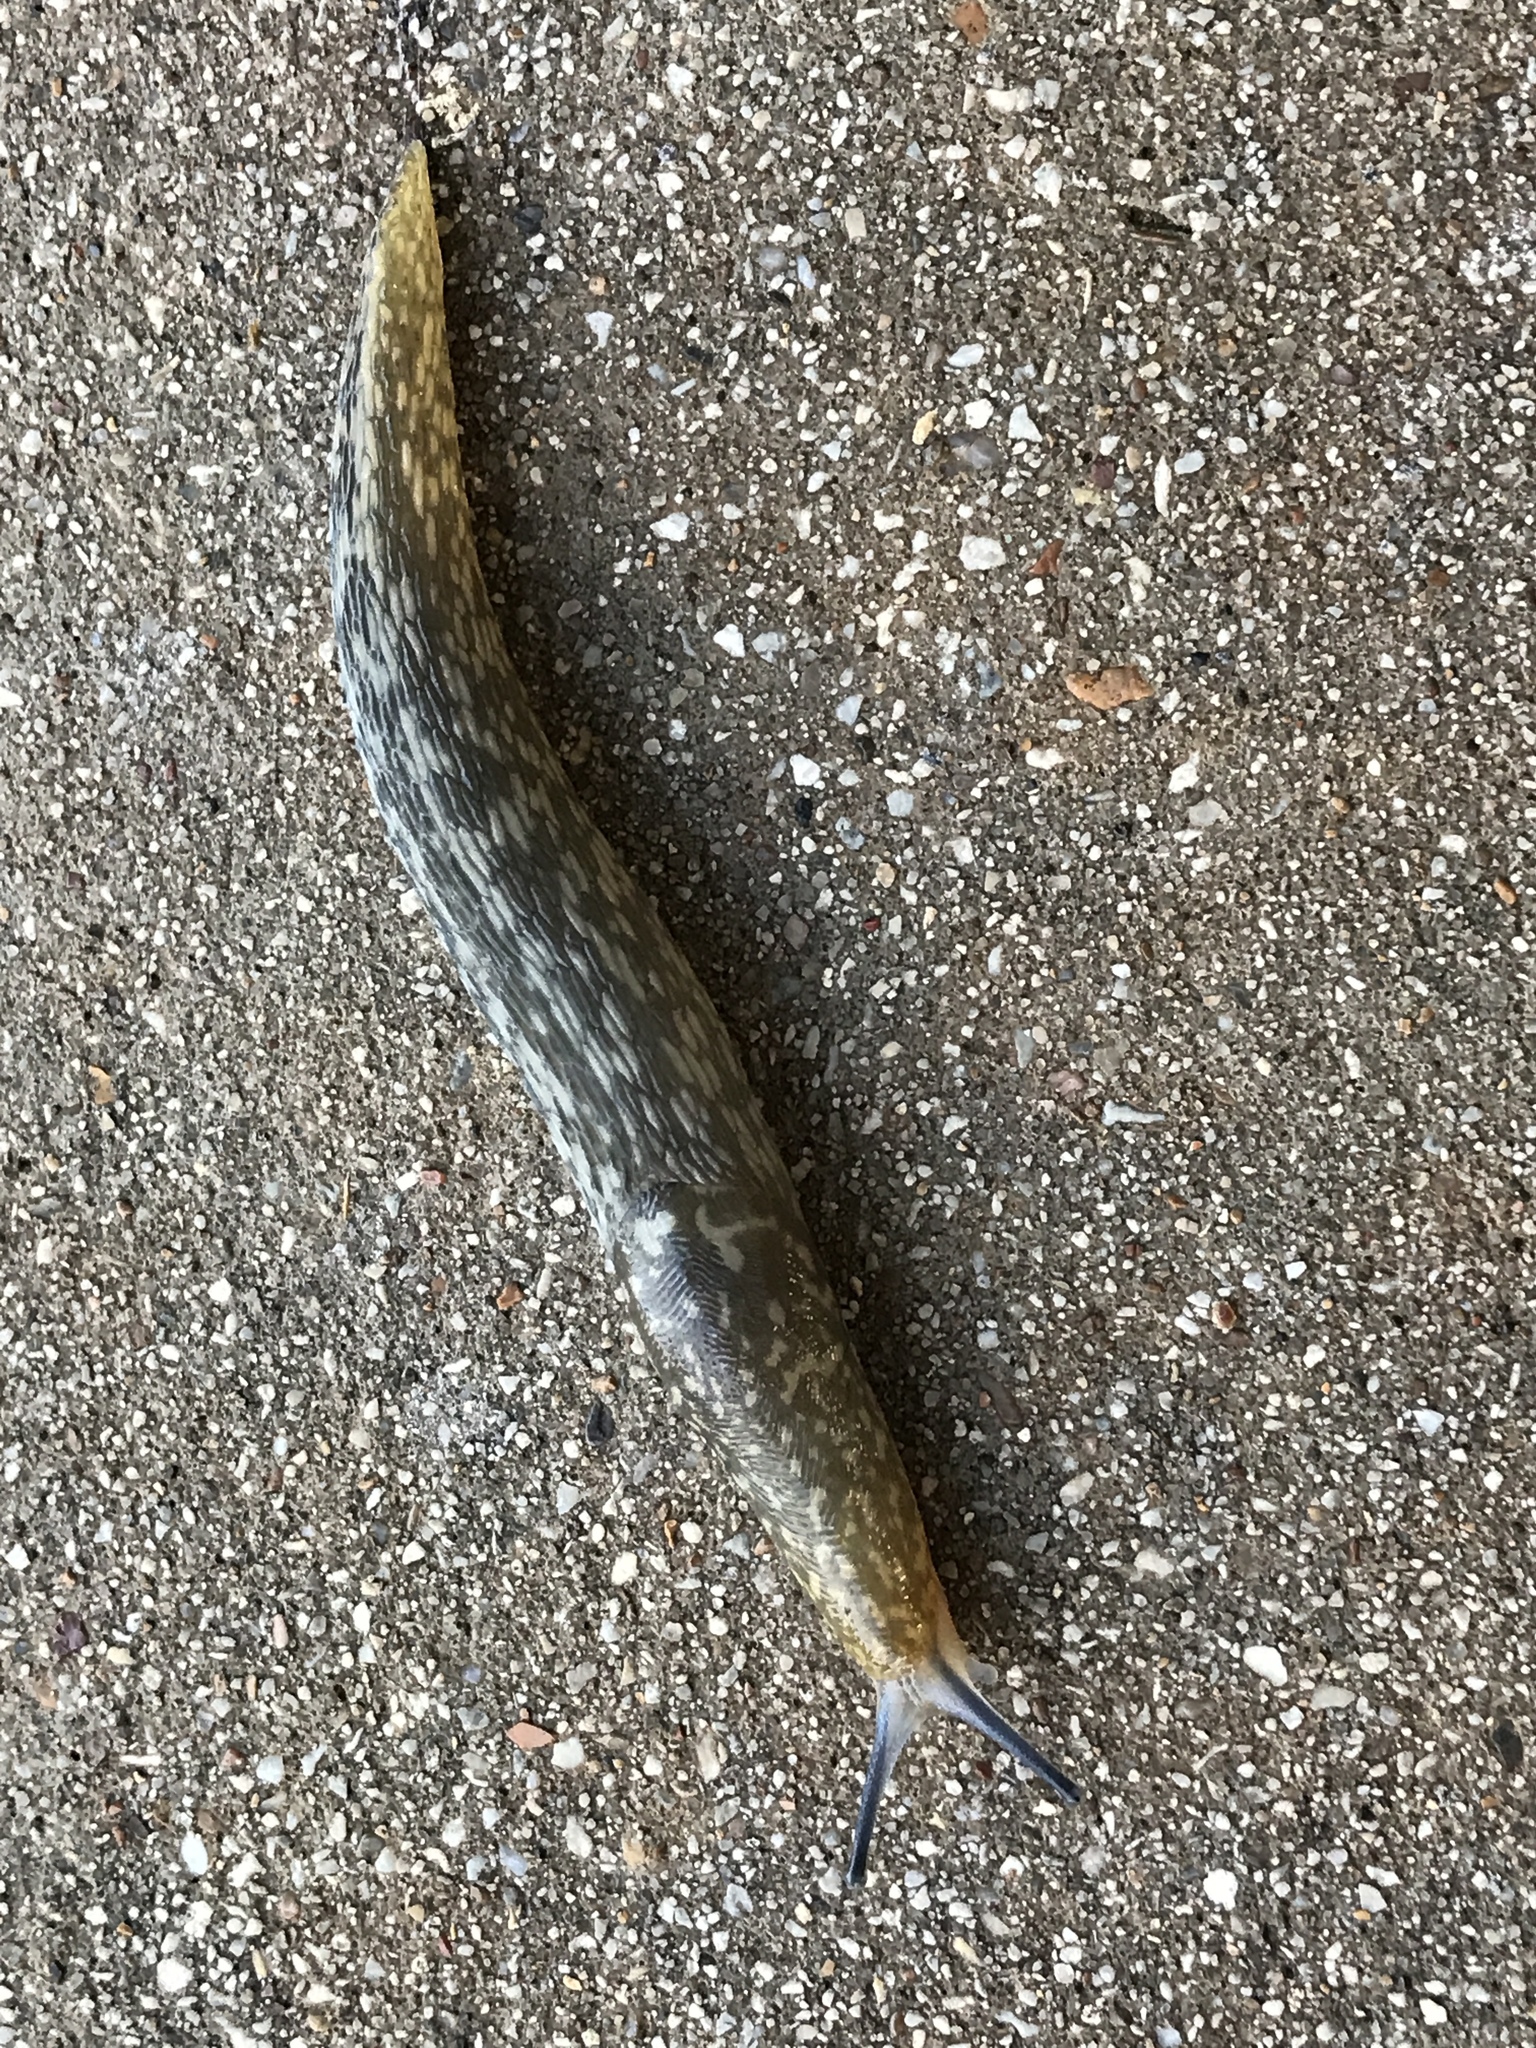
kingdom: Animalia
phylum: Mollusca
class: Gastropoda
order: Stylommatophora
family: Limacidae
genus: Limacus
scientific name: Limacus flavus
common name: Yellow gardenslug
